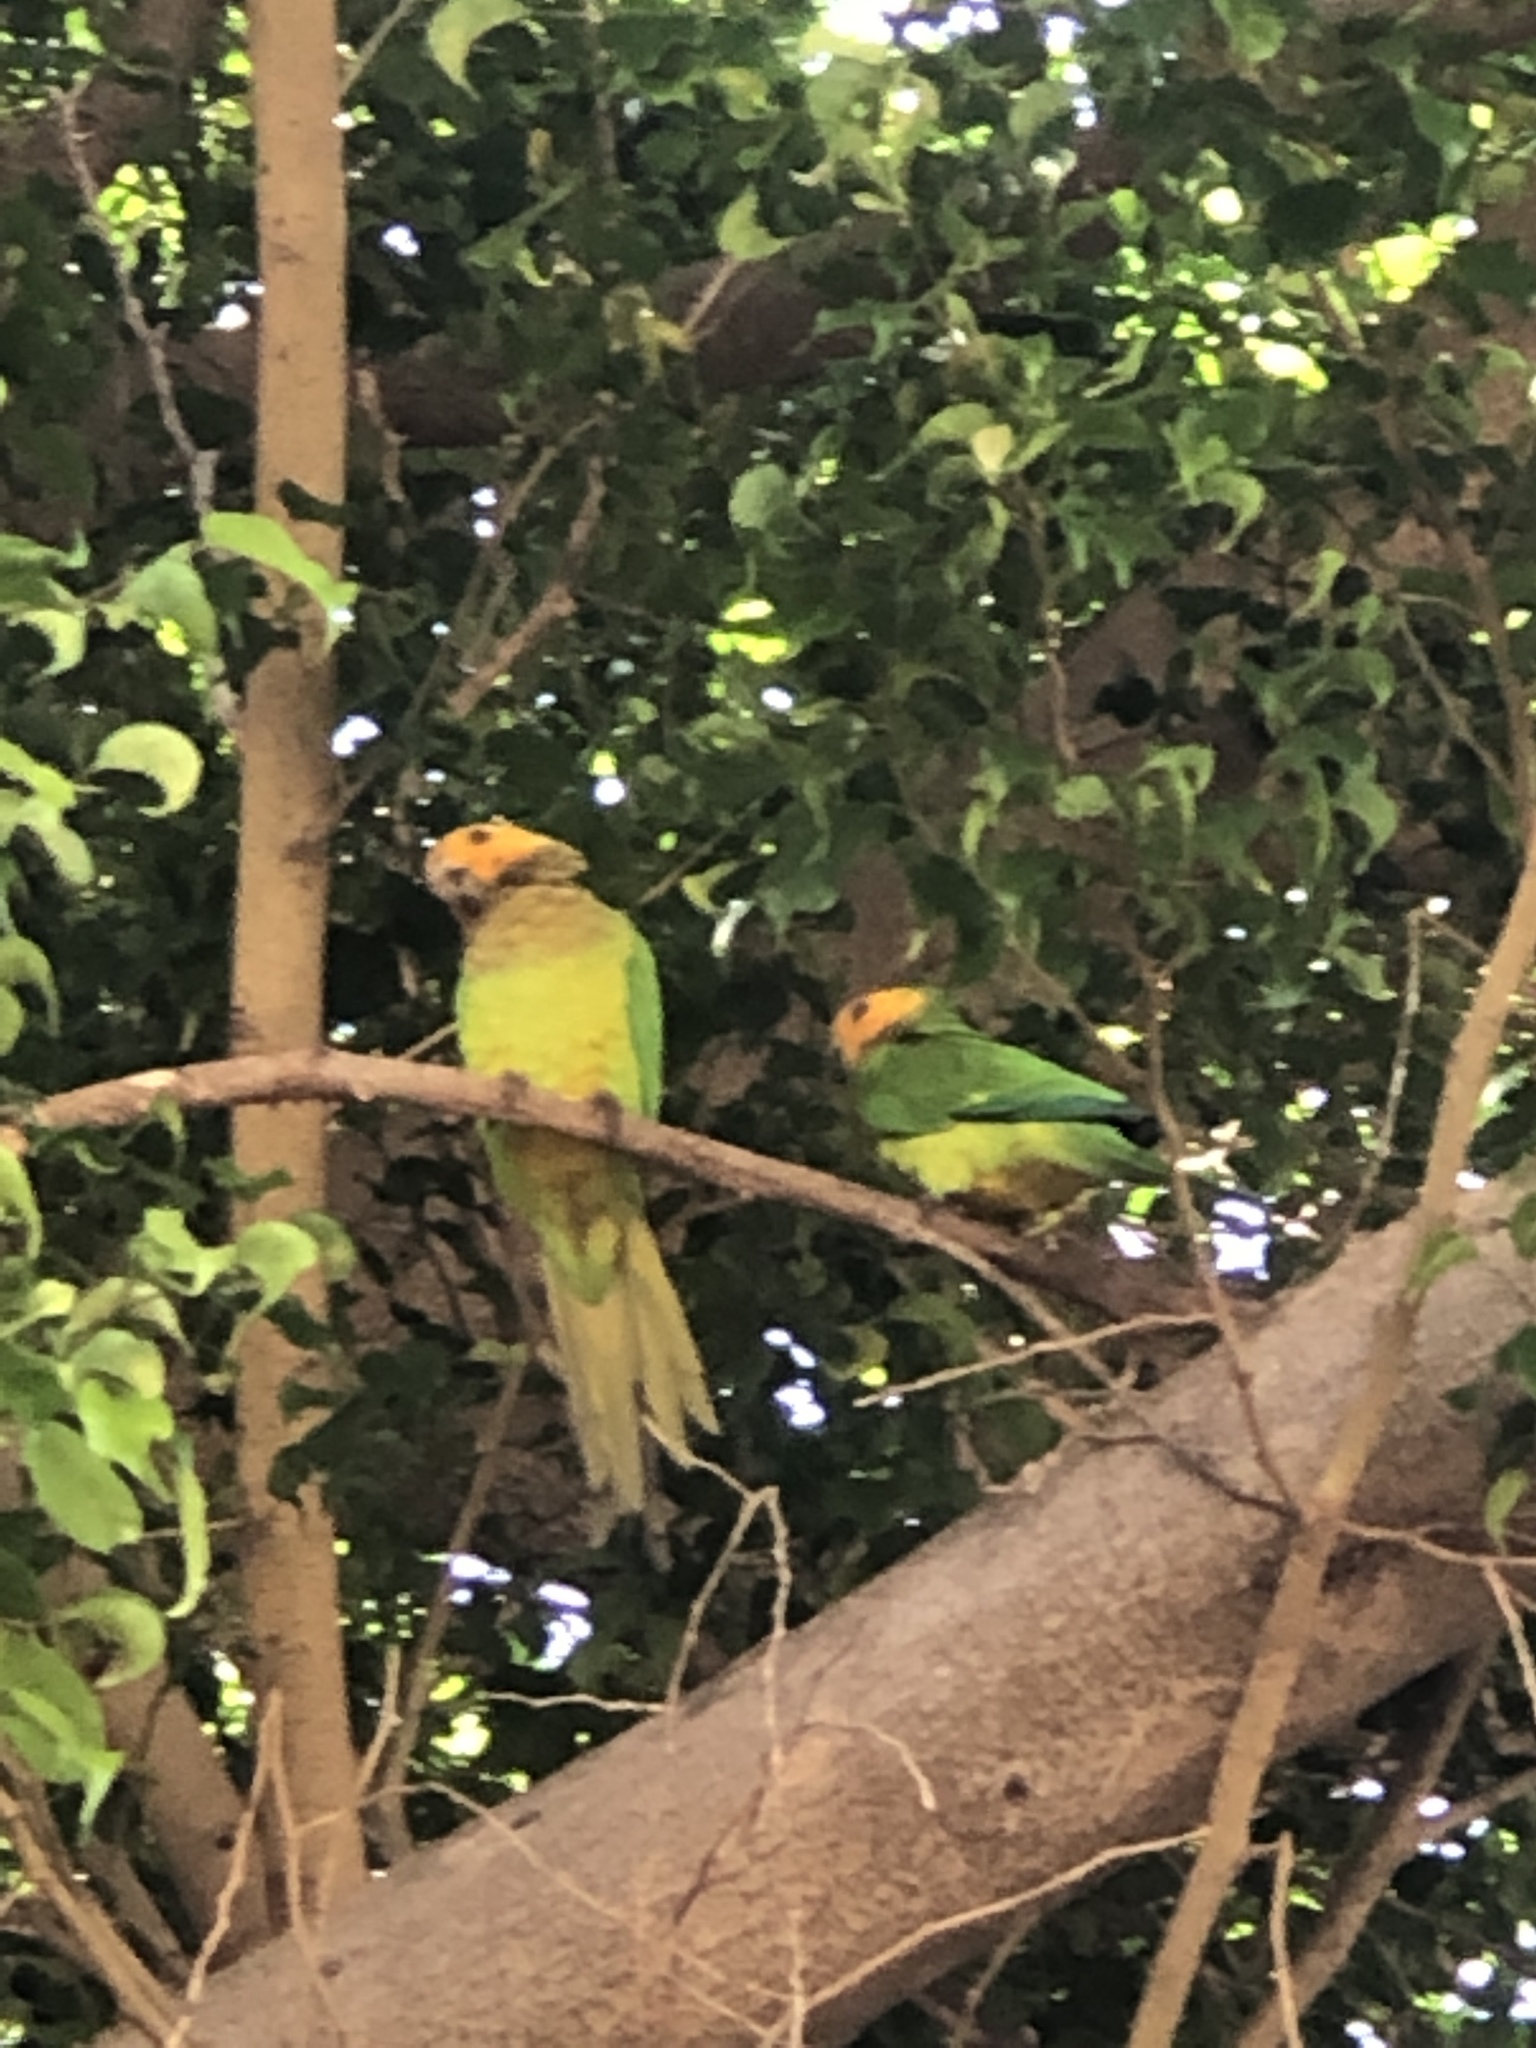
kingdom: Animalia
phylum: Chordata
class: Aves
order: Psittaciformes
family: Psittacidae
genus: Aratinga
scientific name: Aratinga pertinax
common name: Brown-throated parakeet
